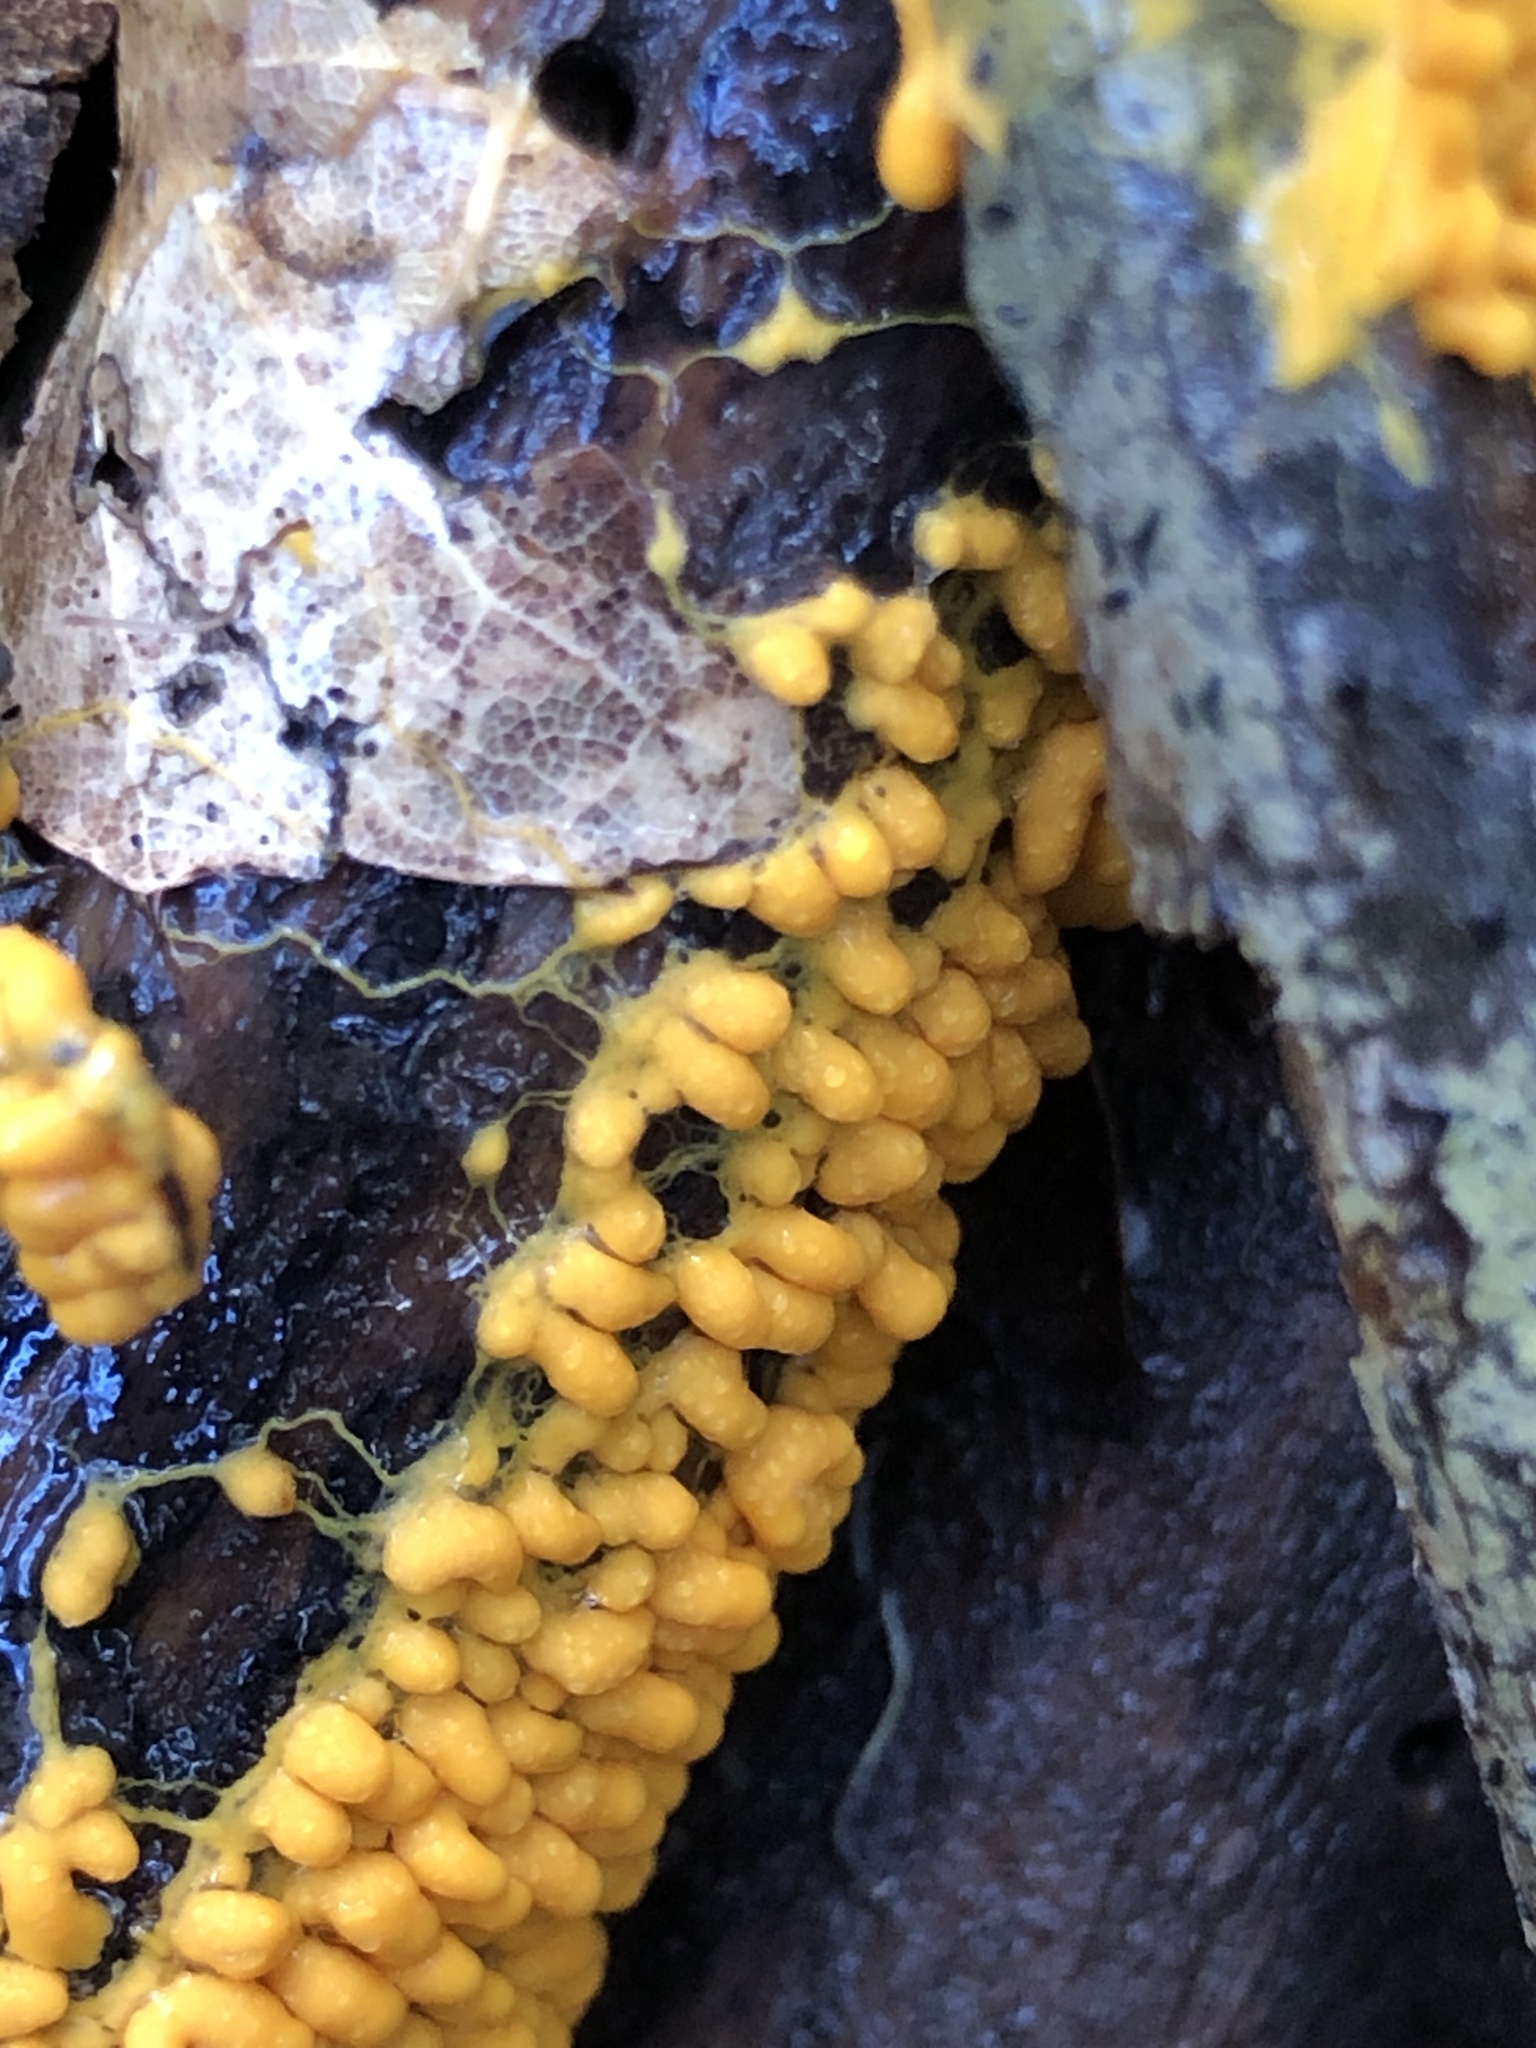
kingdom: Protozoa
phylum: Mycetozoa
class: Myxomycetes
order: Physarales
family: Physaraceae
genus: Leocarpus
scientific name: Leocarpus fragilis
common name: Insect-egg slime
